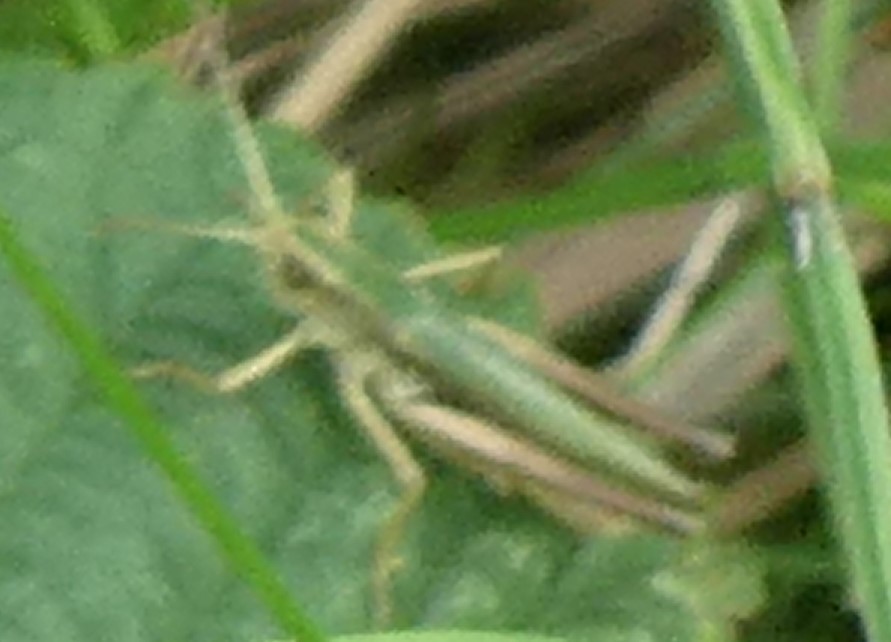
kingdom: Animalia
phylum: Arthropoda
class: Insecta
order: Orthoptera
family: Acrididae
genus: Chorthippus
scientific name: Chorthippus albomarginatus
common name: Lesser marsh grasshopper
